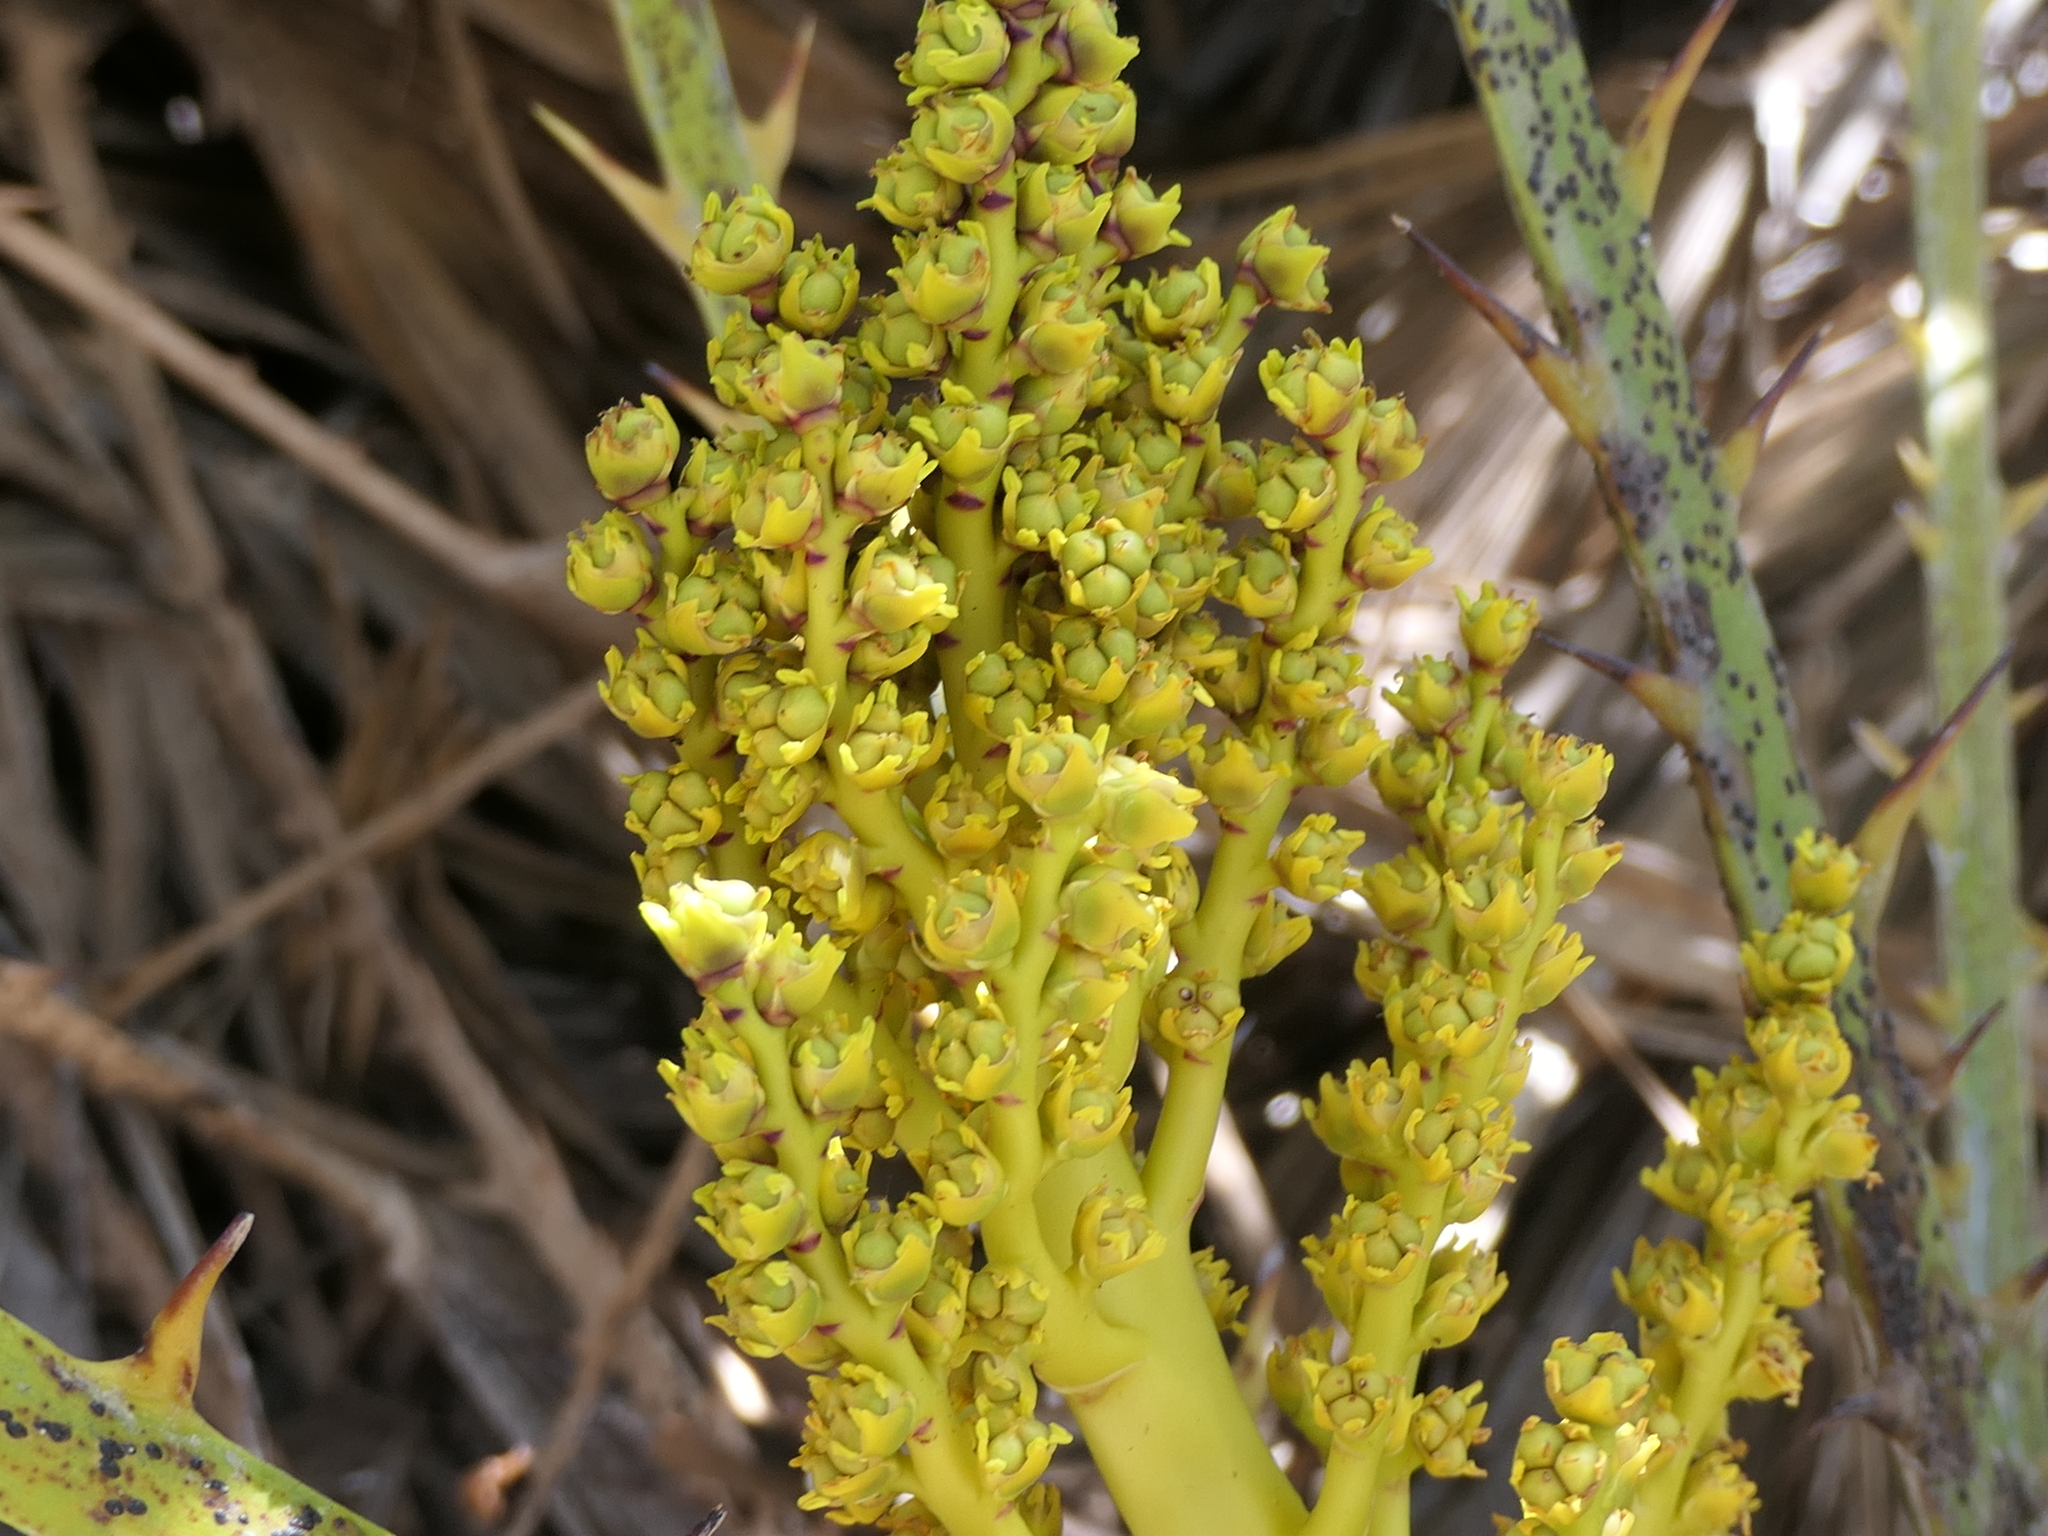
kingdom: Plantae
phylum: Tracheophyta
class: Liliopsida
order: Arecales
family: Arecaceae
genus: Chamaerops
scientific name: Chamaerops humilis
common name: Dwarf fan palm
